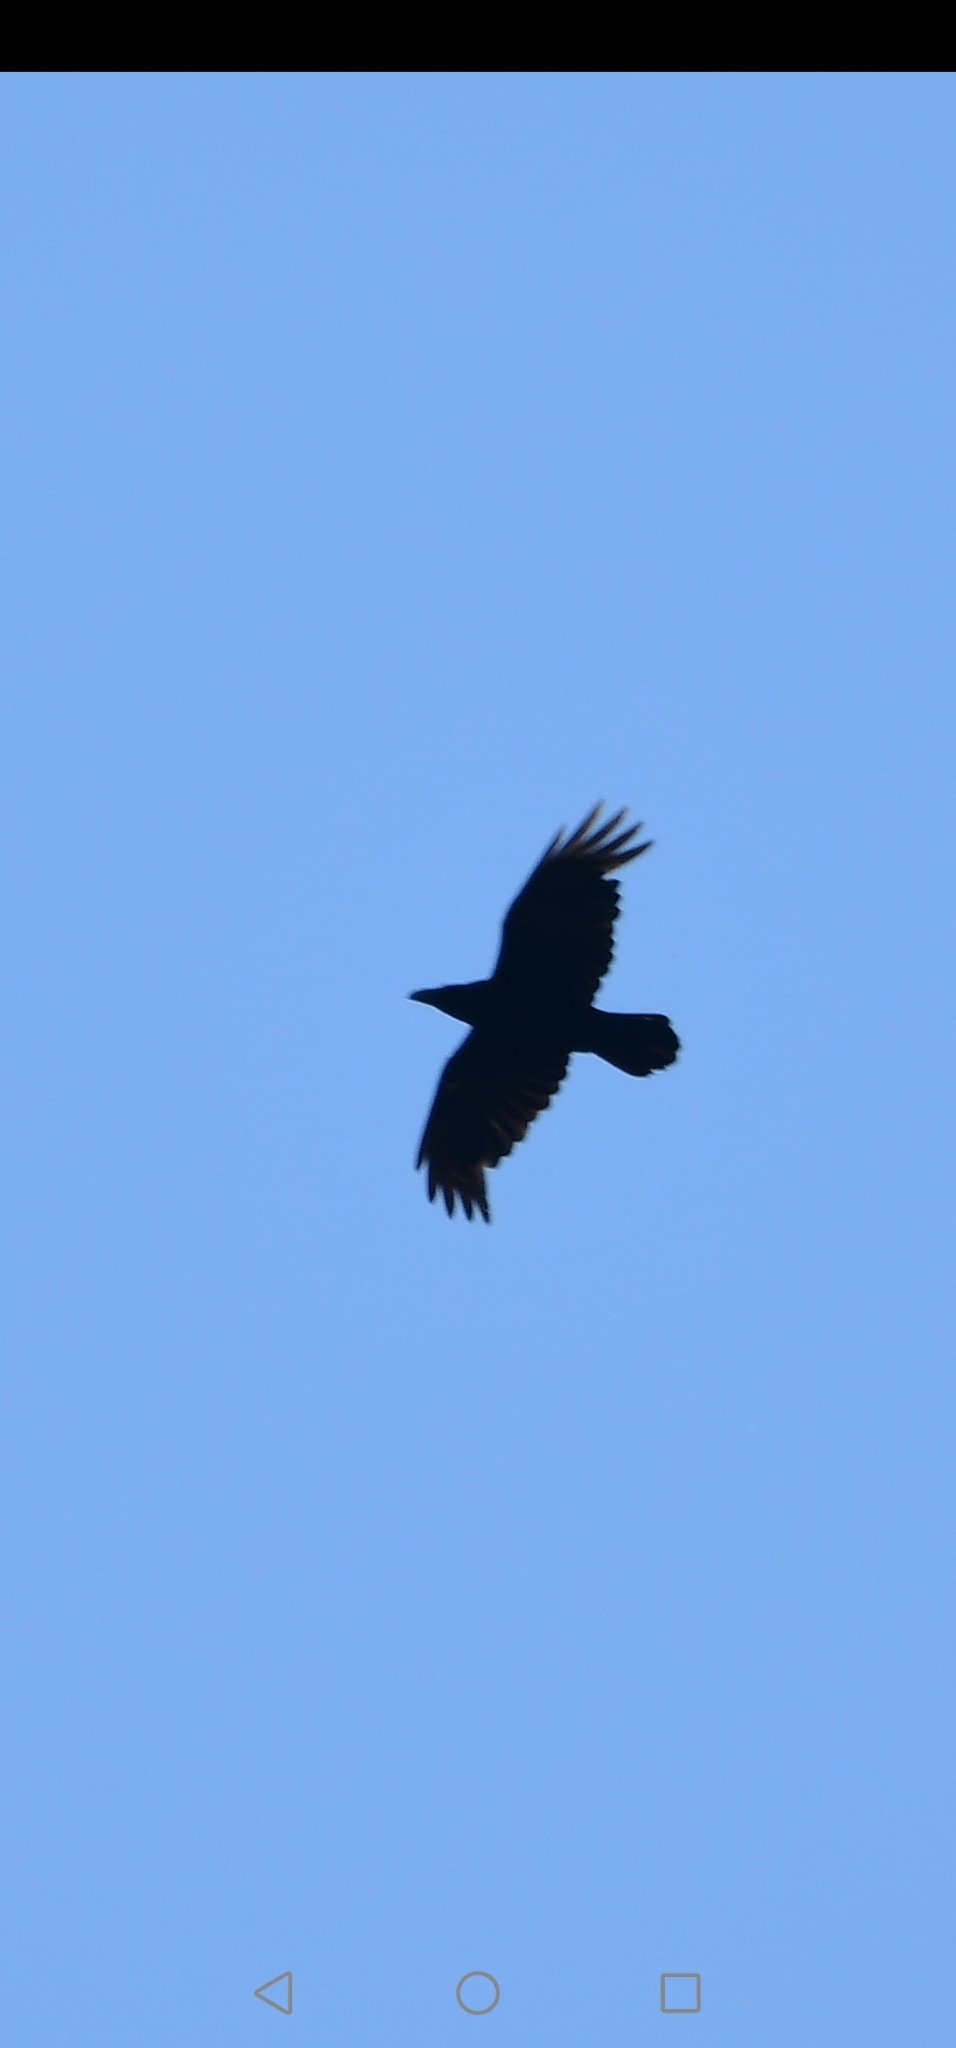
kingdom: Animalia
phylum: Chordata
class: Aves
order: Passeriformes
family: Corvidae
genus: Corvus
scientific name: Corvus corax
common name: Common raven
